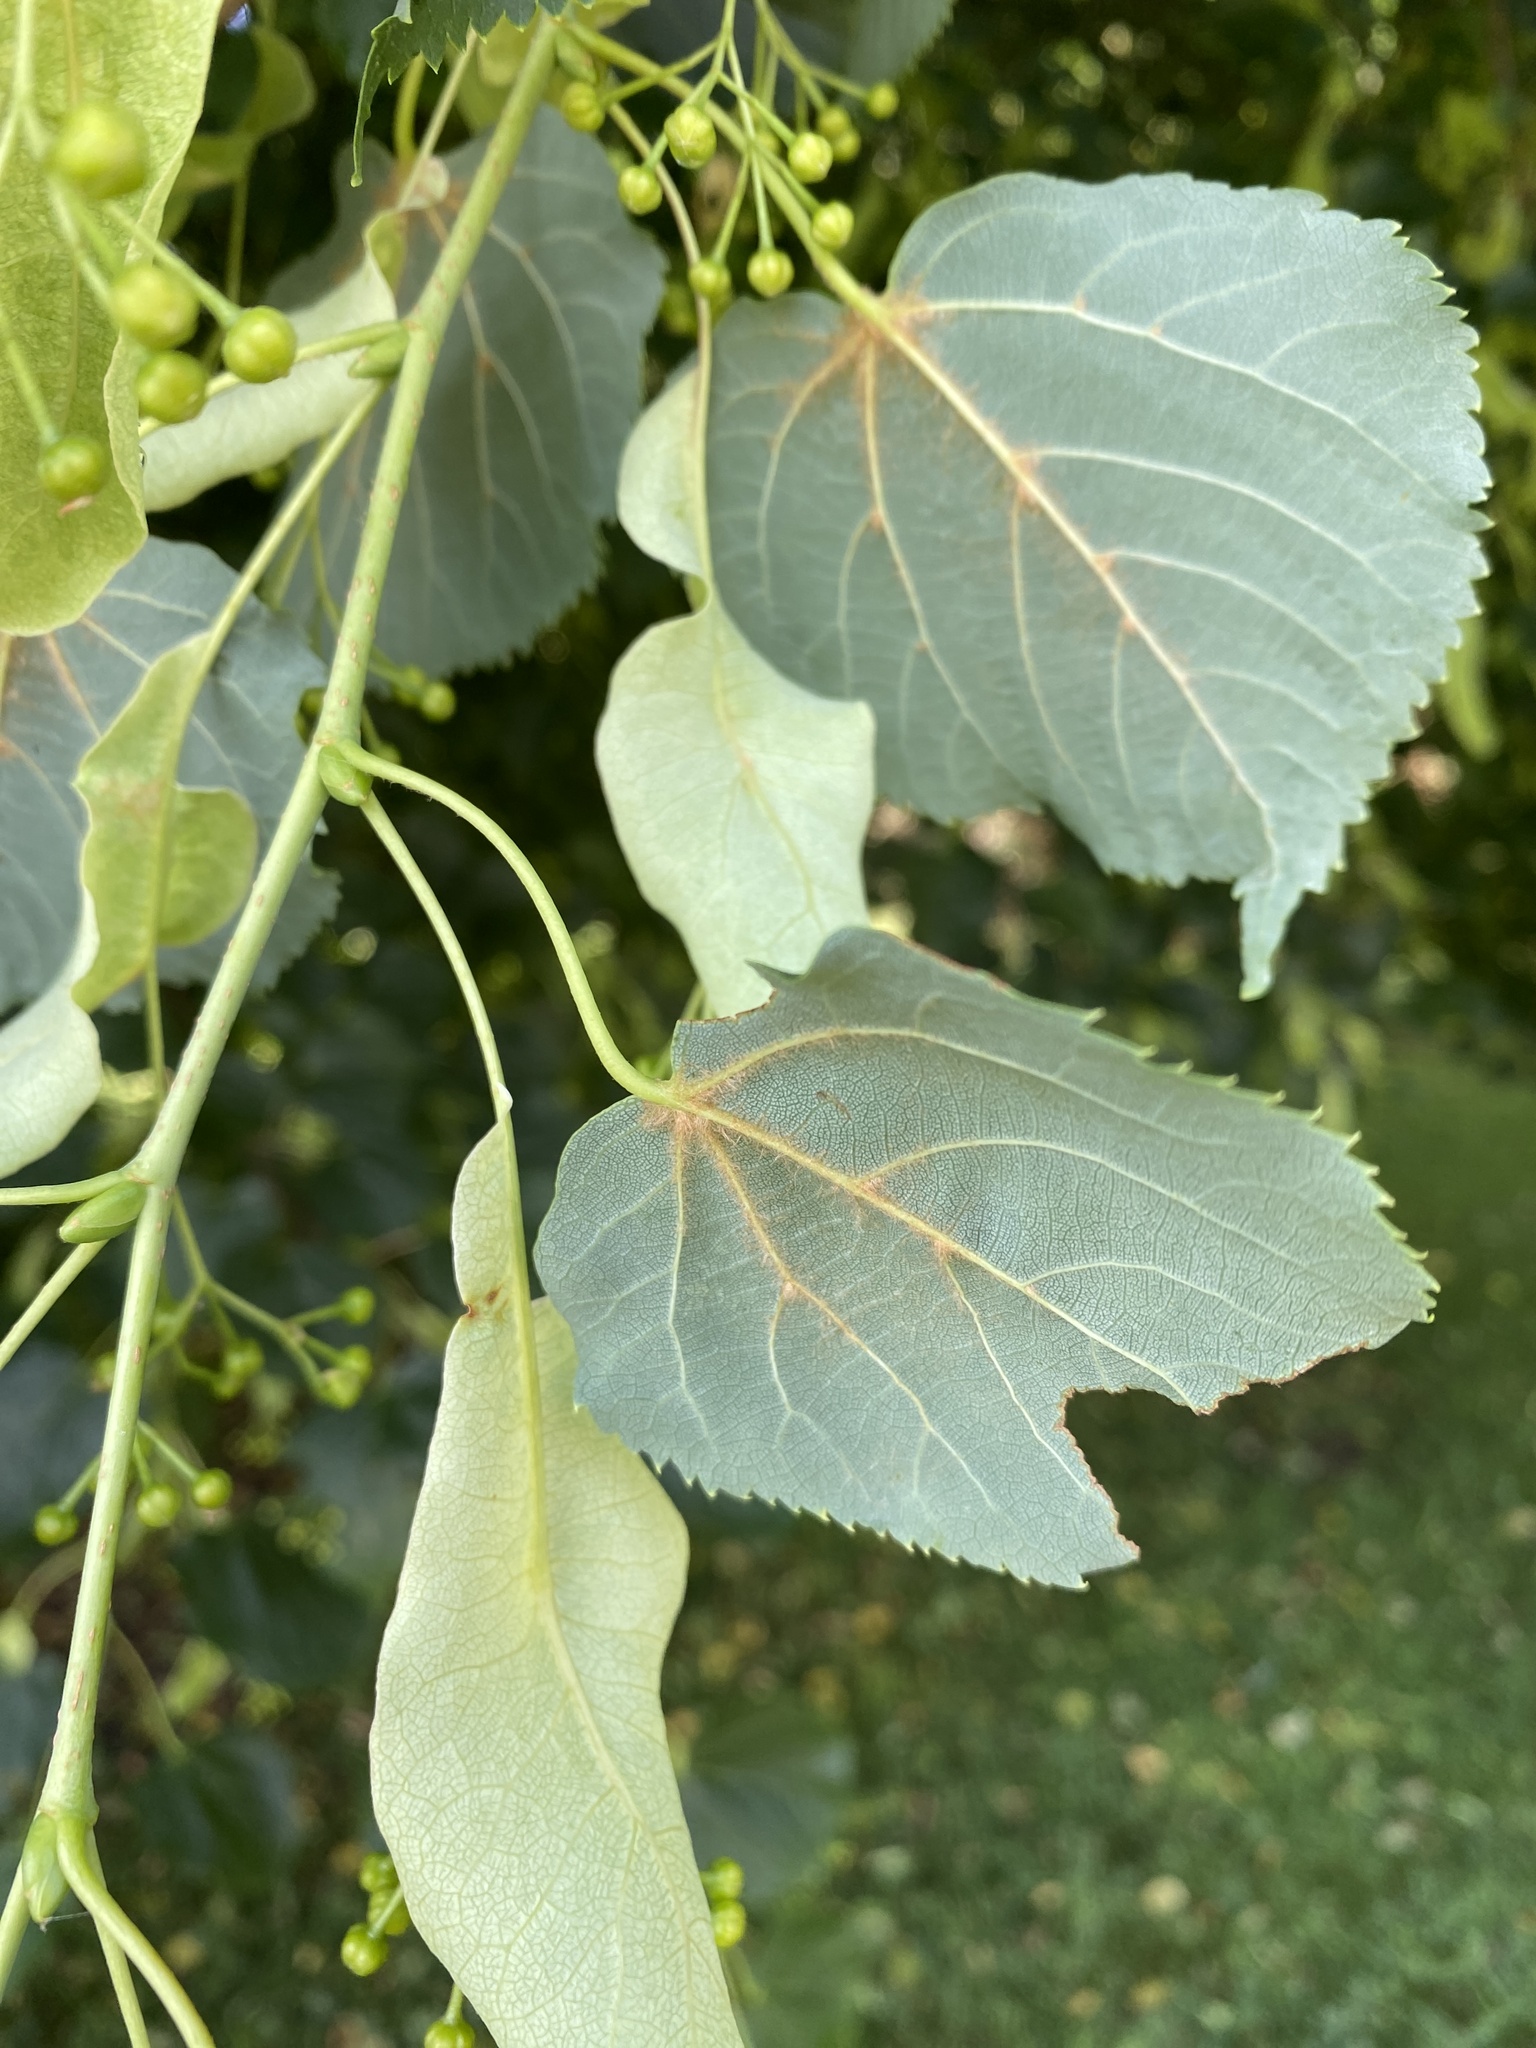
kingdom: Plantae
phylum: Tracheophyta
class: Magnoliopsida
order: Malvales
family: Malvaceae
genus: Tilia
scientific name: Tilia cordata
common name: Small-leaved lime
